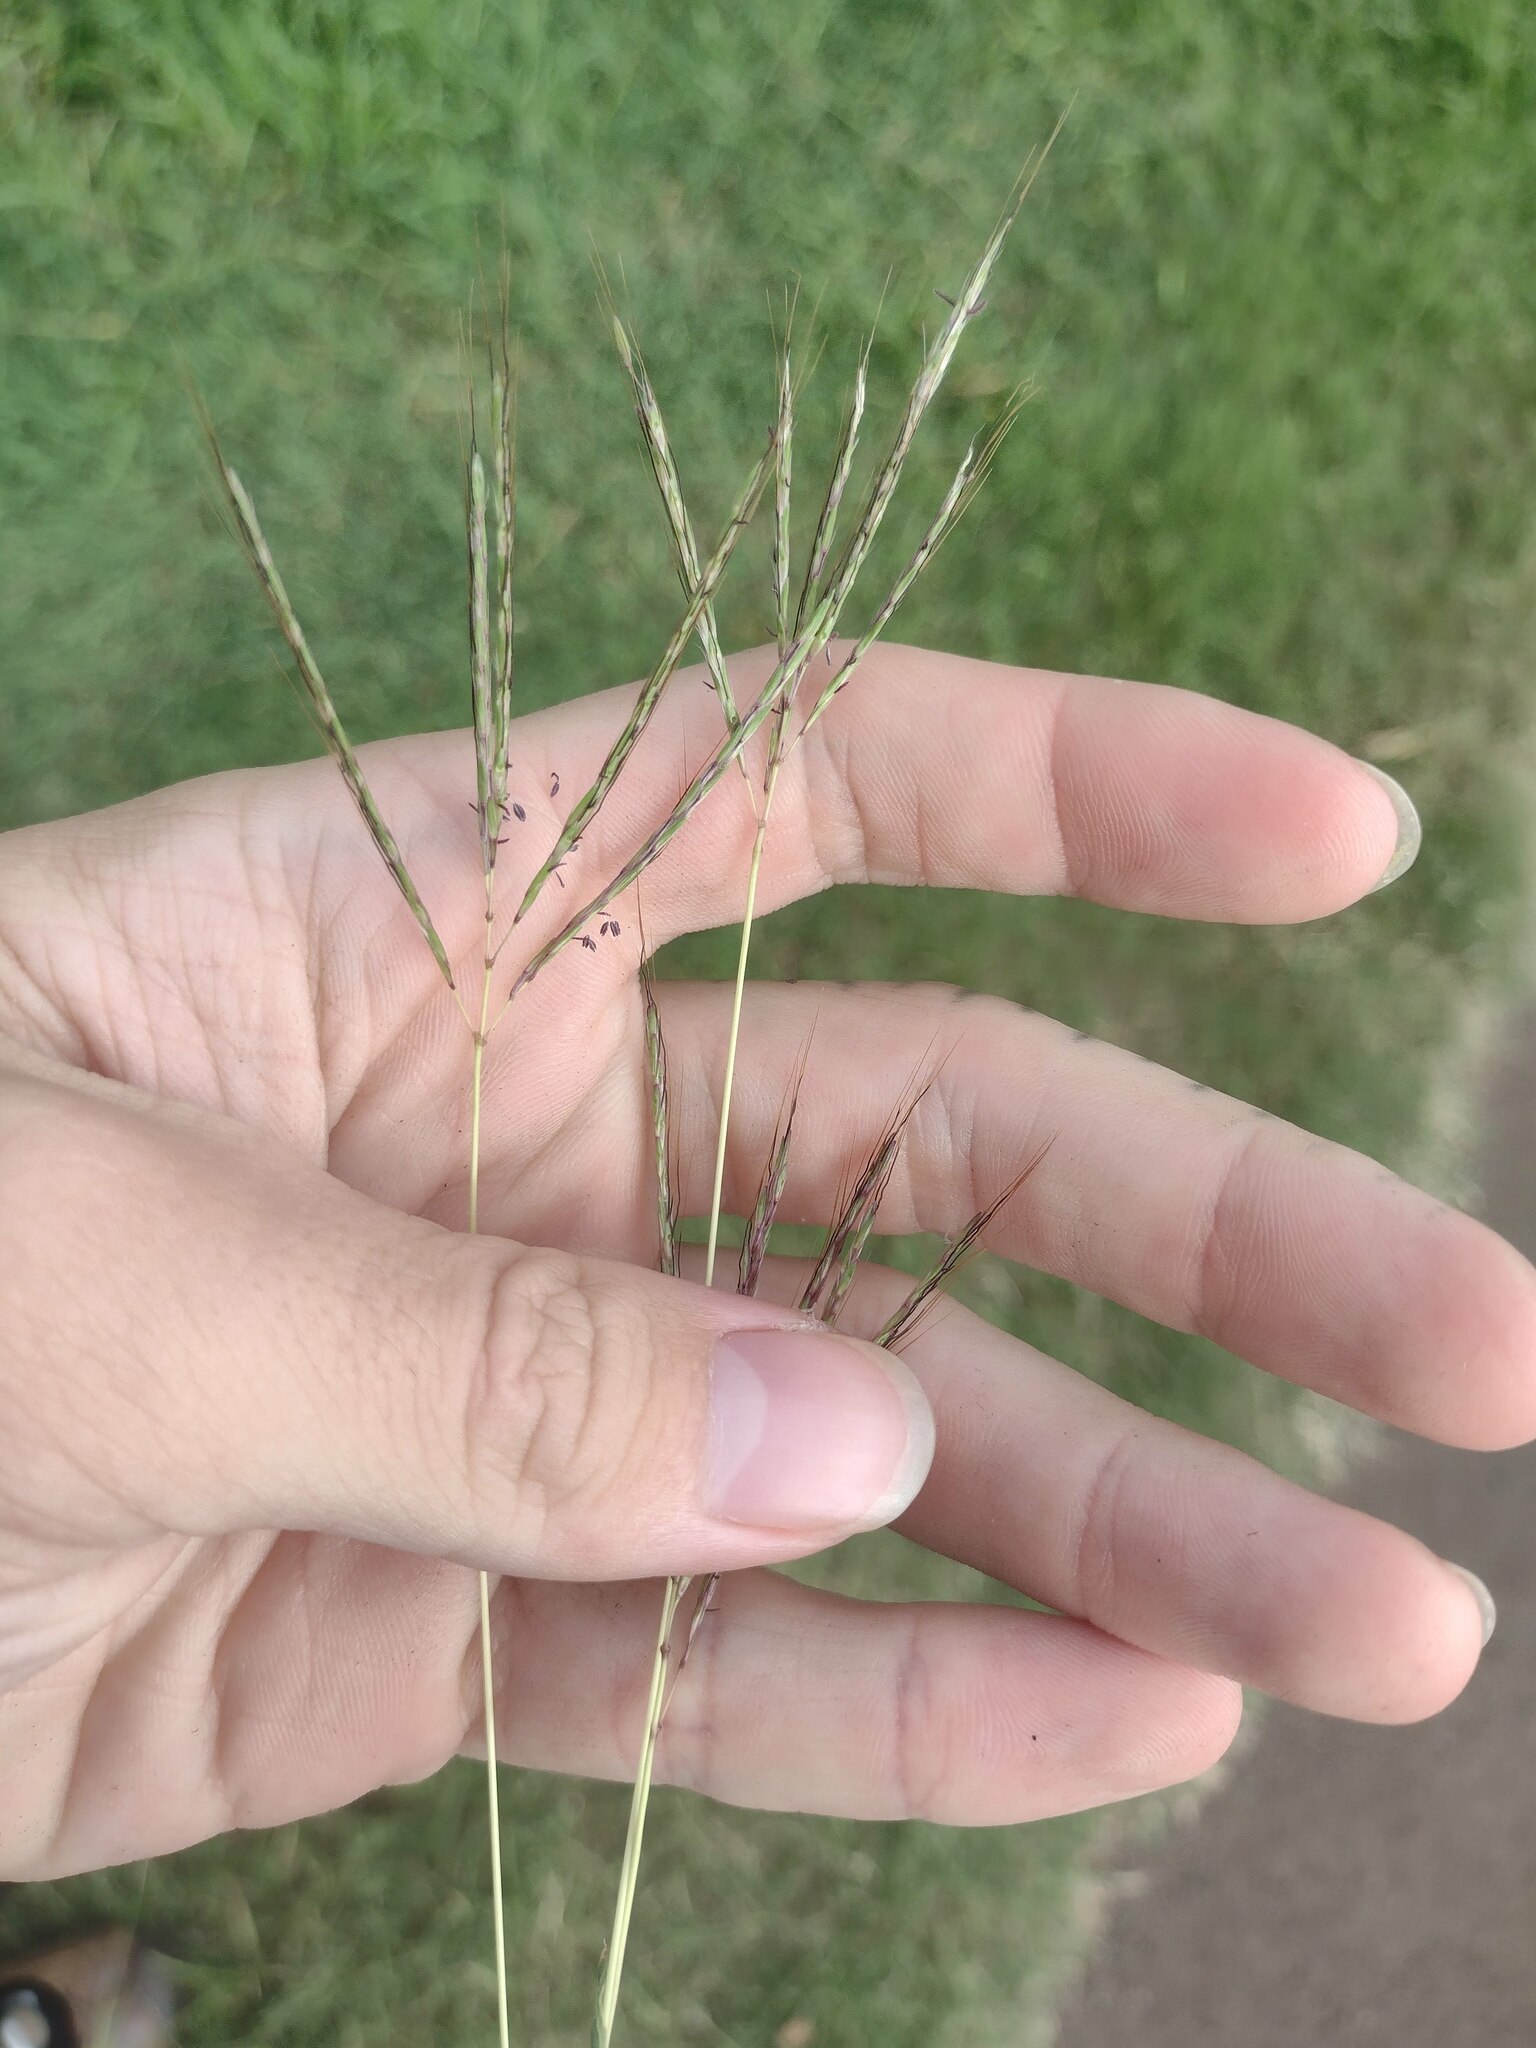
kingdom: Plantae
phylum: Tracheophyta
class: Liliopsida
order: Poales
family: Poaceae
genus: Bothriochloa
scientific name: Bothriochloa pertusa
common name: Pitted beardgrass
